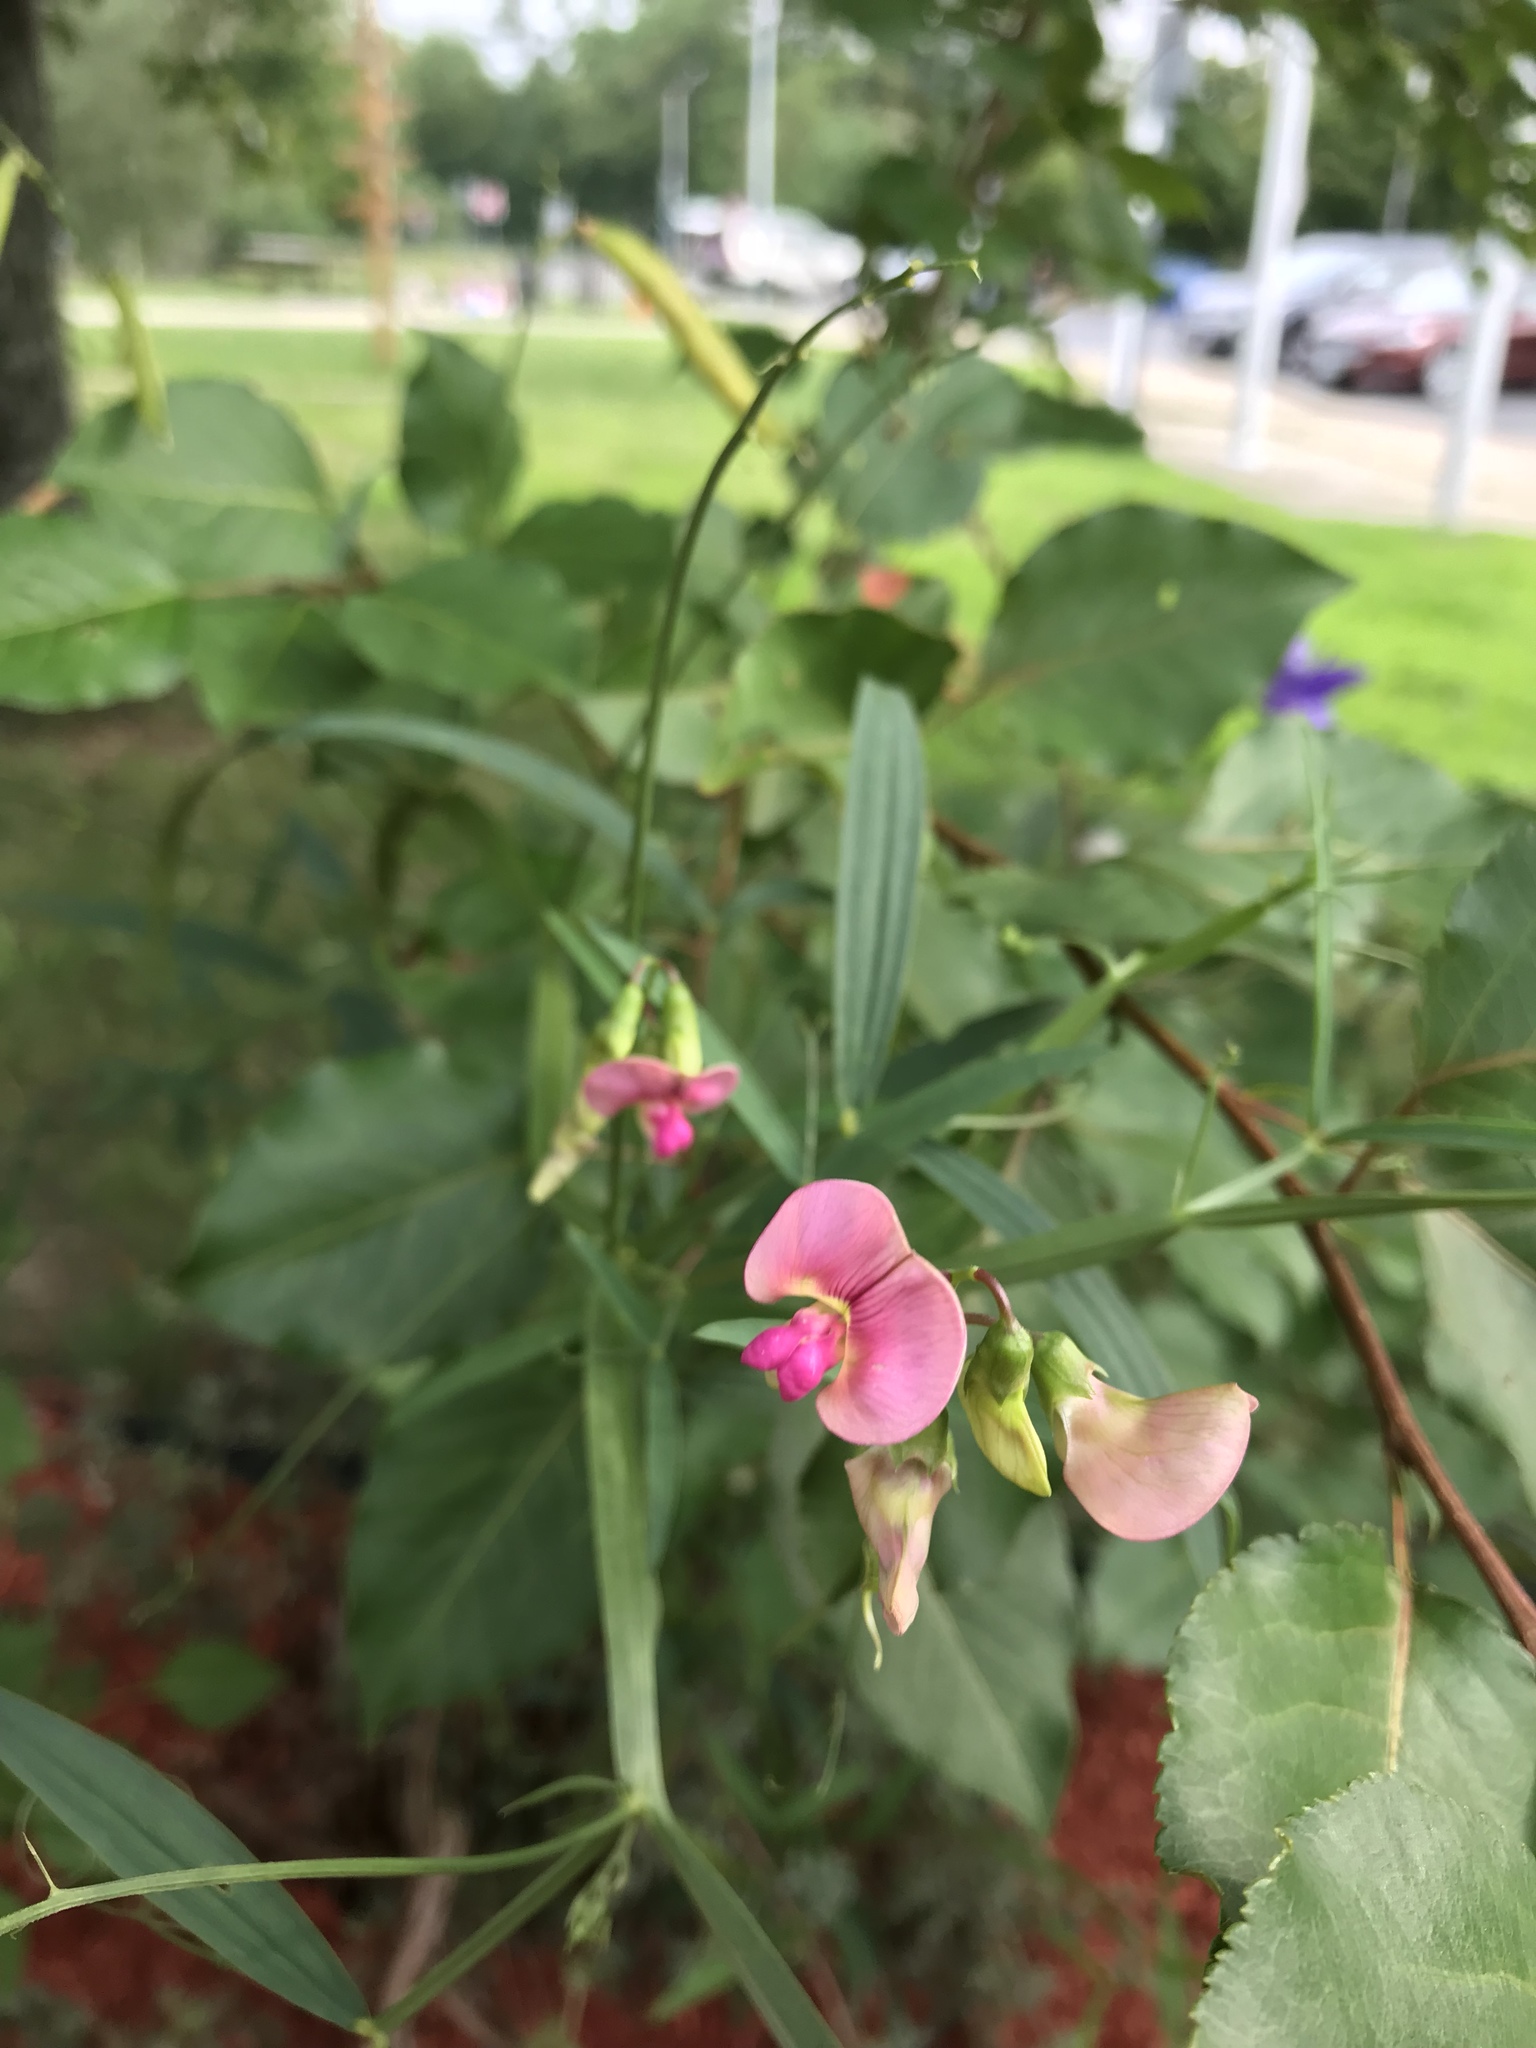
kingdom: Plantae
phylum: Tracheophyta
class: Magnoliopsida
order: Fabales
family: Fabaceae
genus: Lathyrus
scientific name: Lathyrus sylvestris
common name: Flat pea
